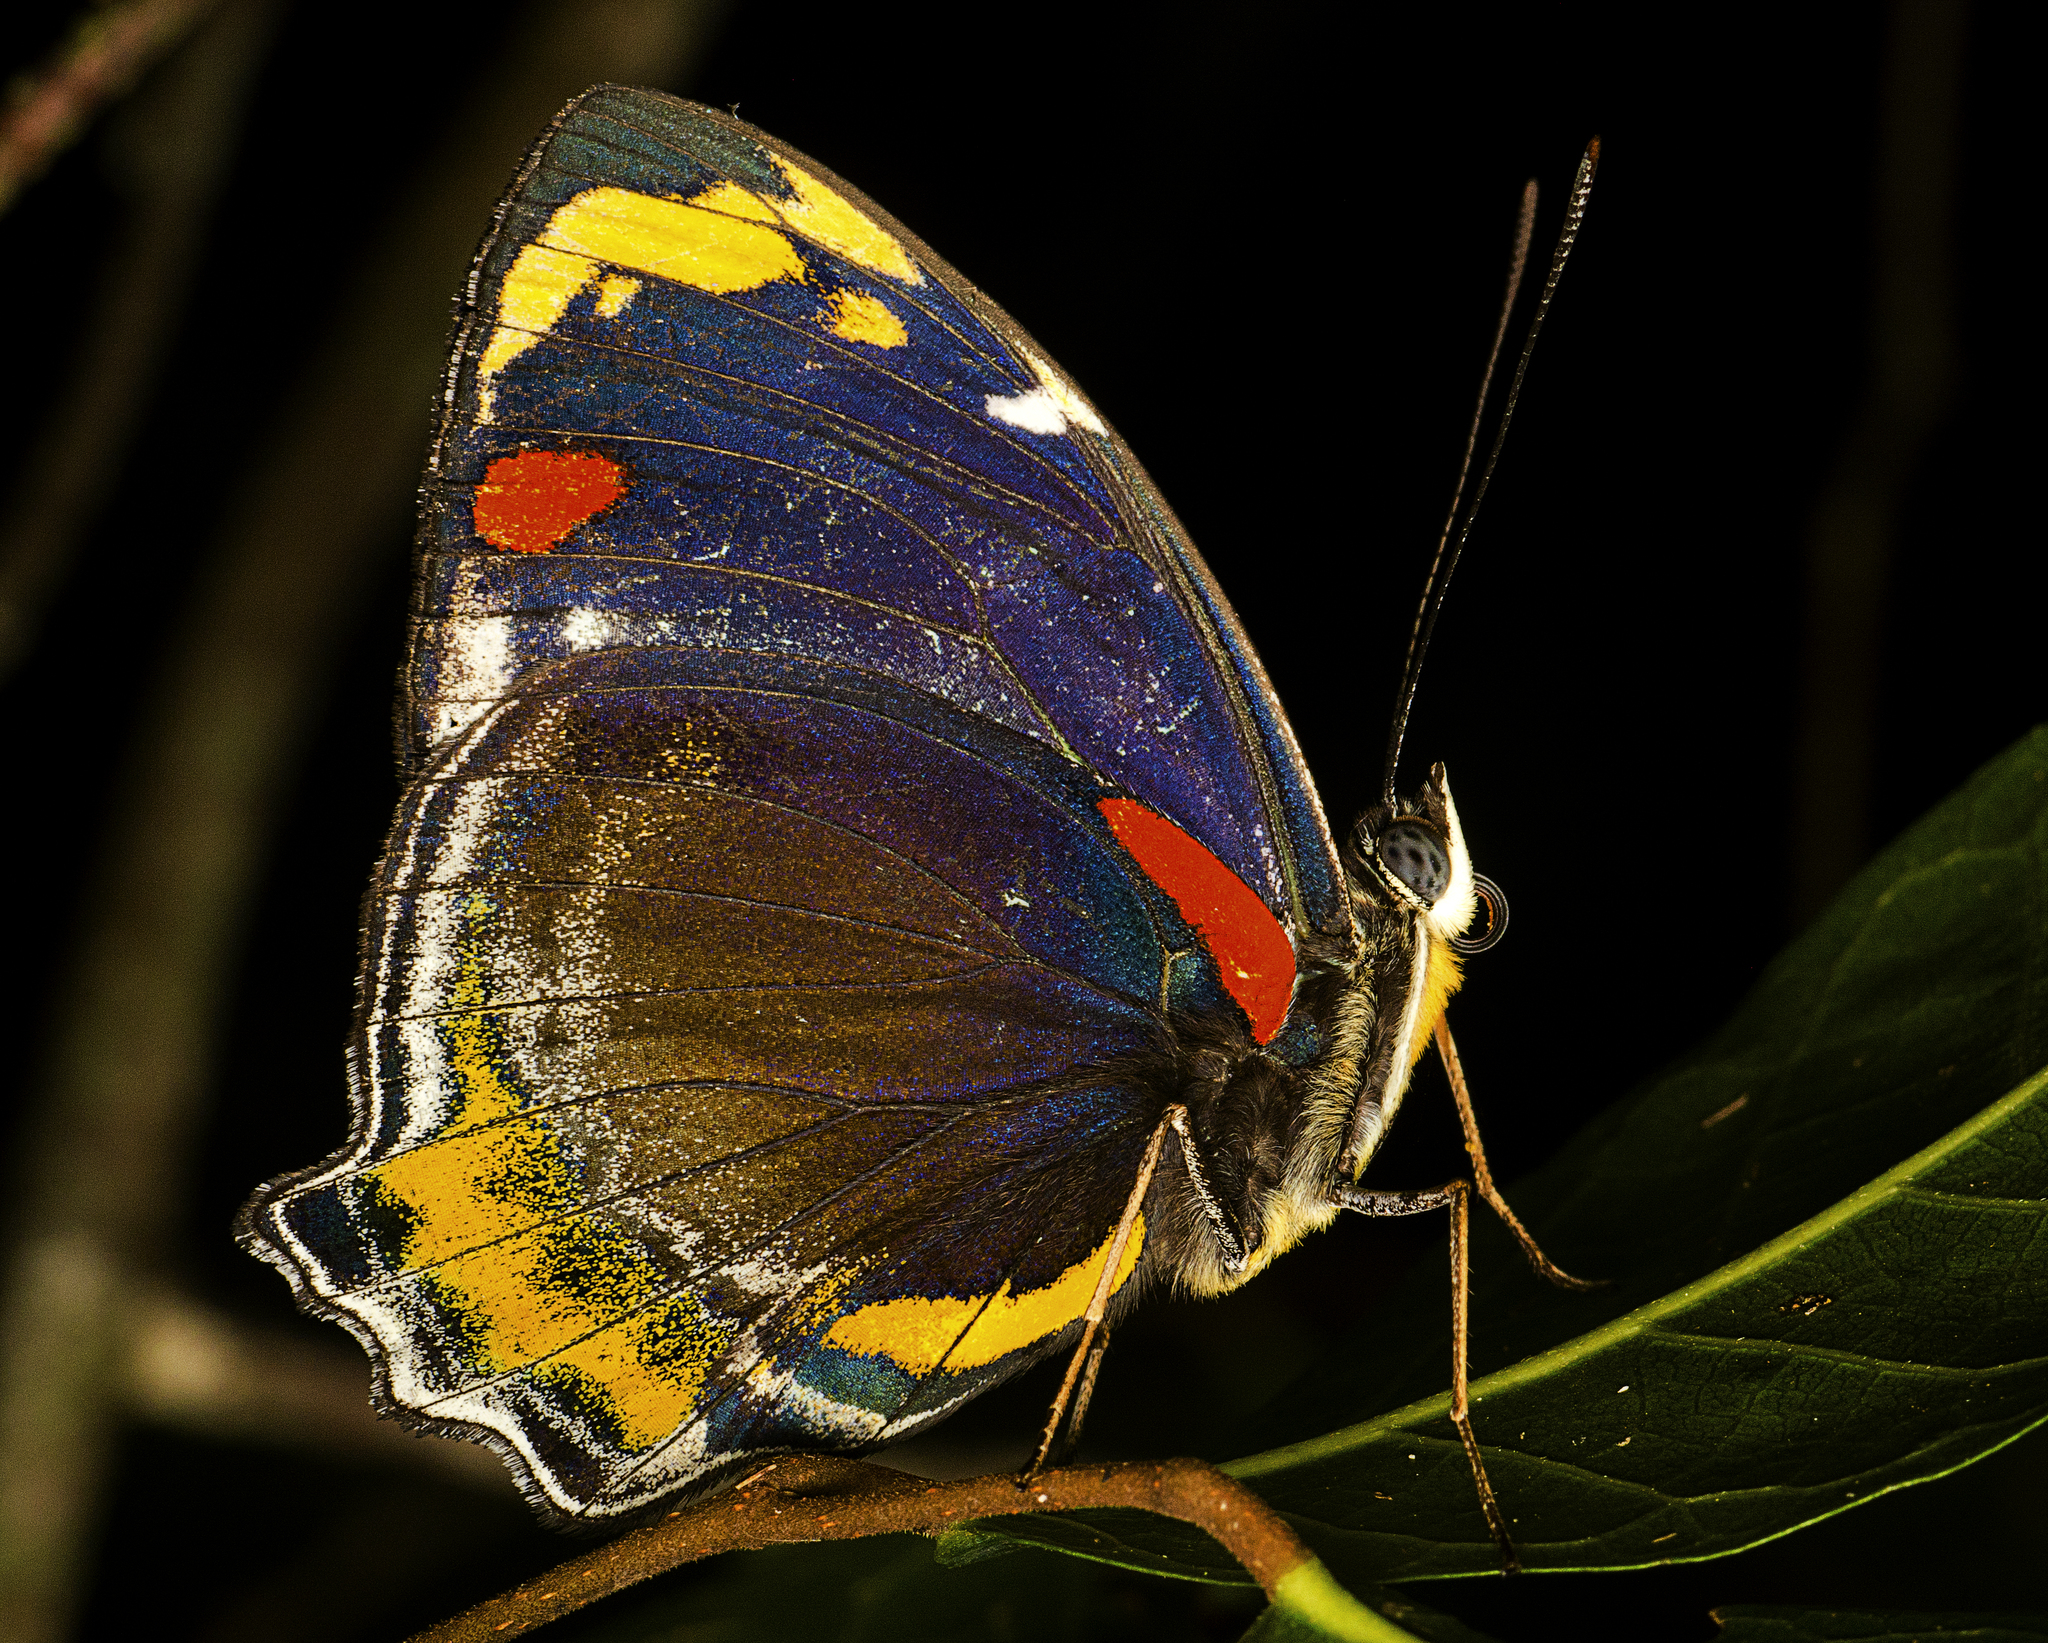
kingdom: Animalia
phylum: Arthropoda
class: Insecta
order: Lepidoptera
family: Nymphalidae
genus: Mynes
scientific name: Mynes geoffroyi
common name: Jezebel nymph
